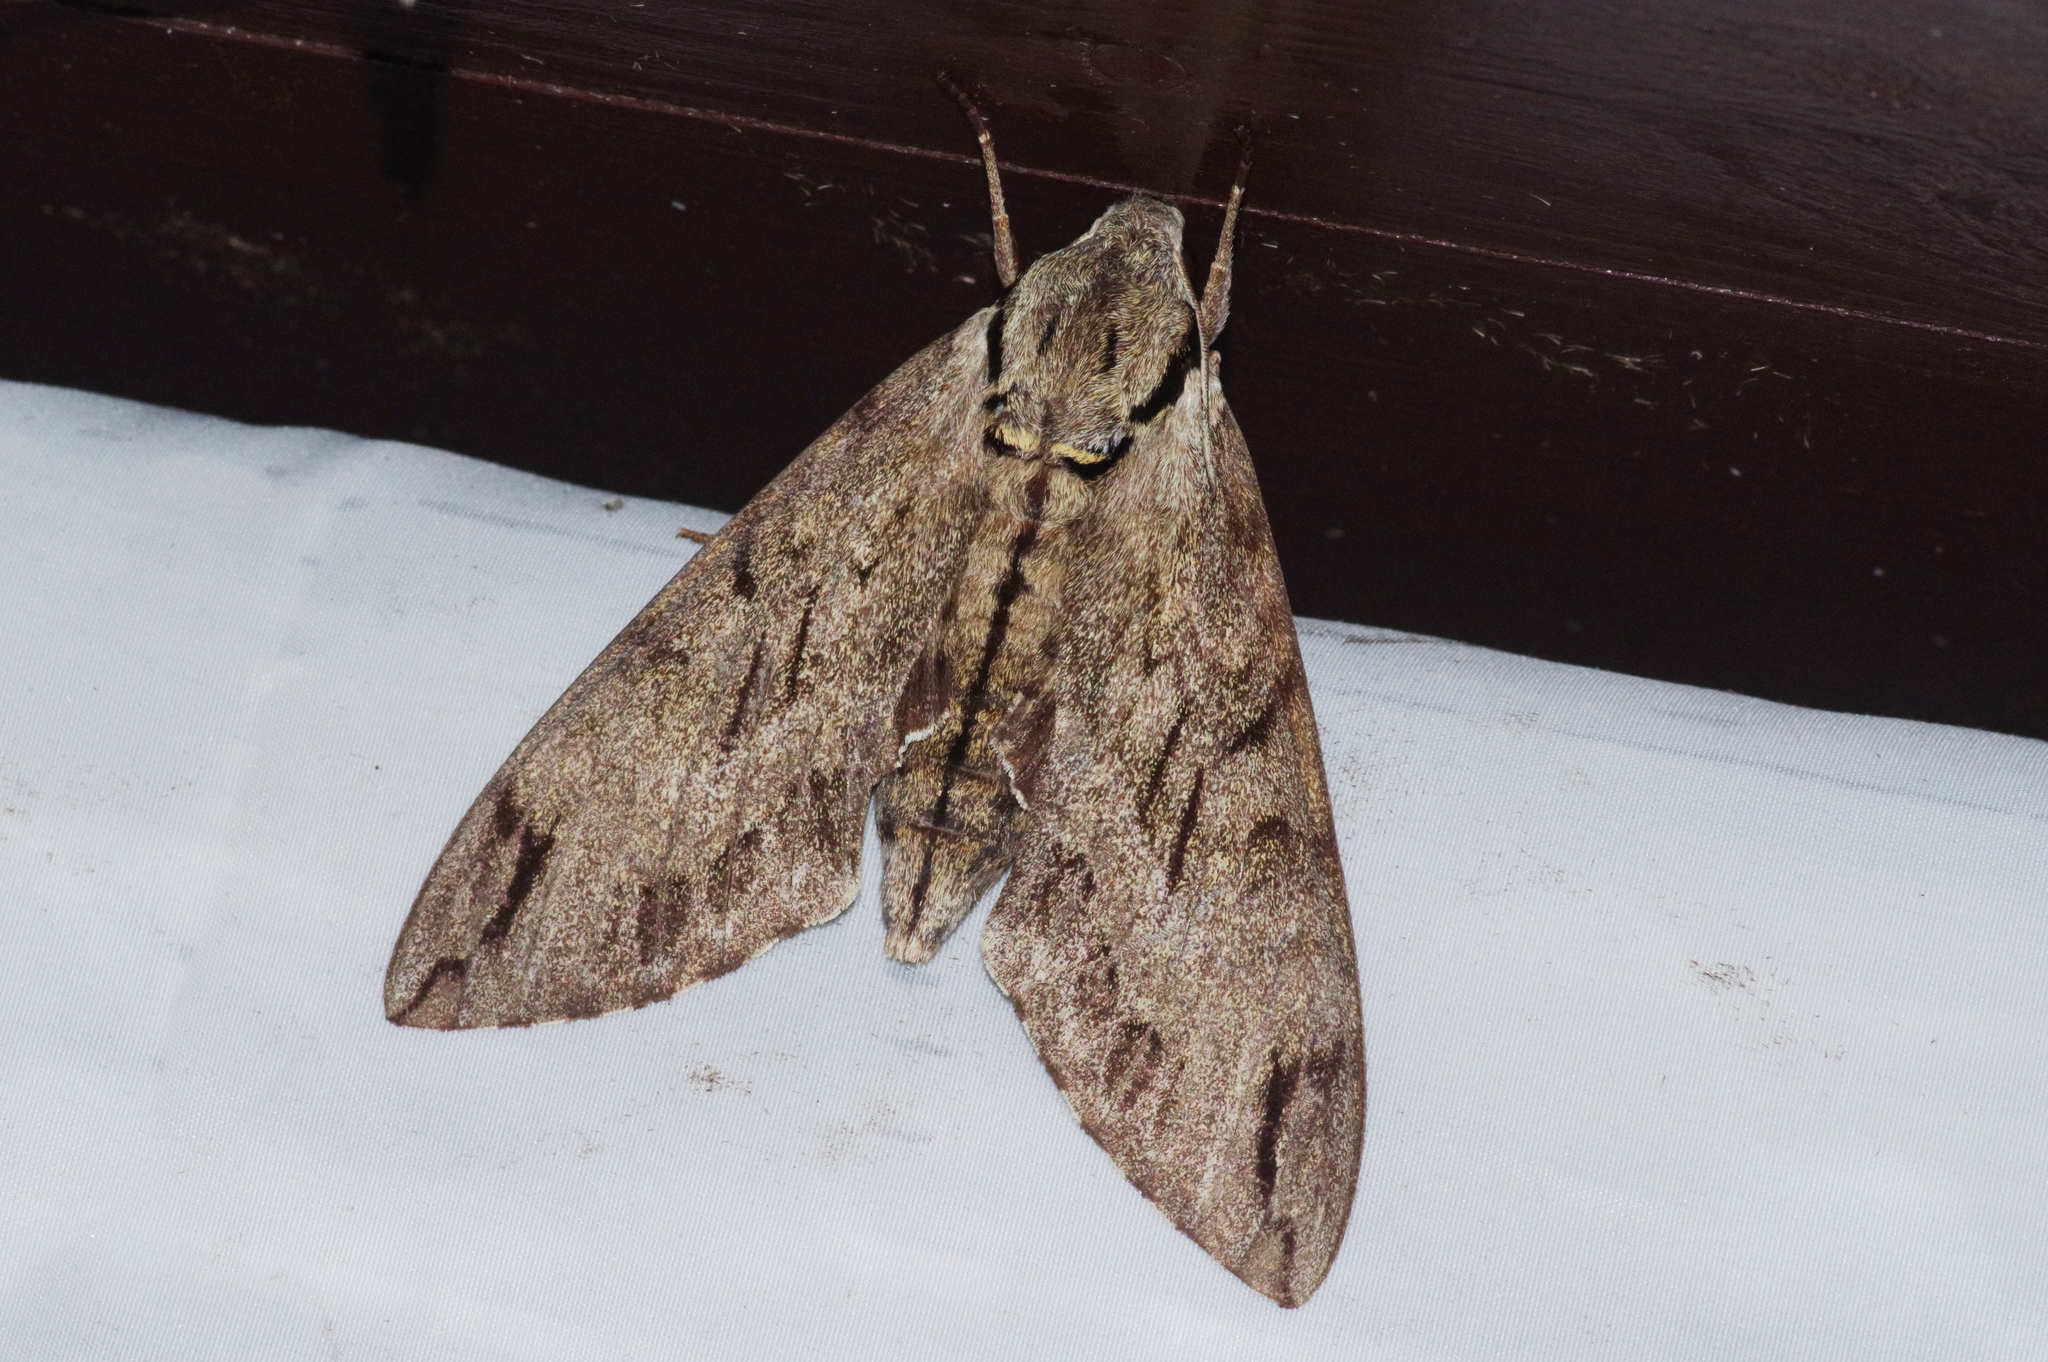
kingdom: Animalia
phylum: Arthropoda
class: Insecta
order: Lepidoptera
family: Sphingidae
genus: Psilogramma
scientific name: Psilogramma increta
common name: Gray hawk moth
